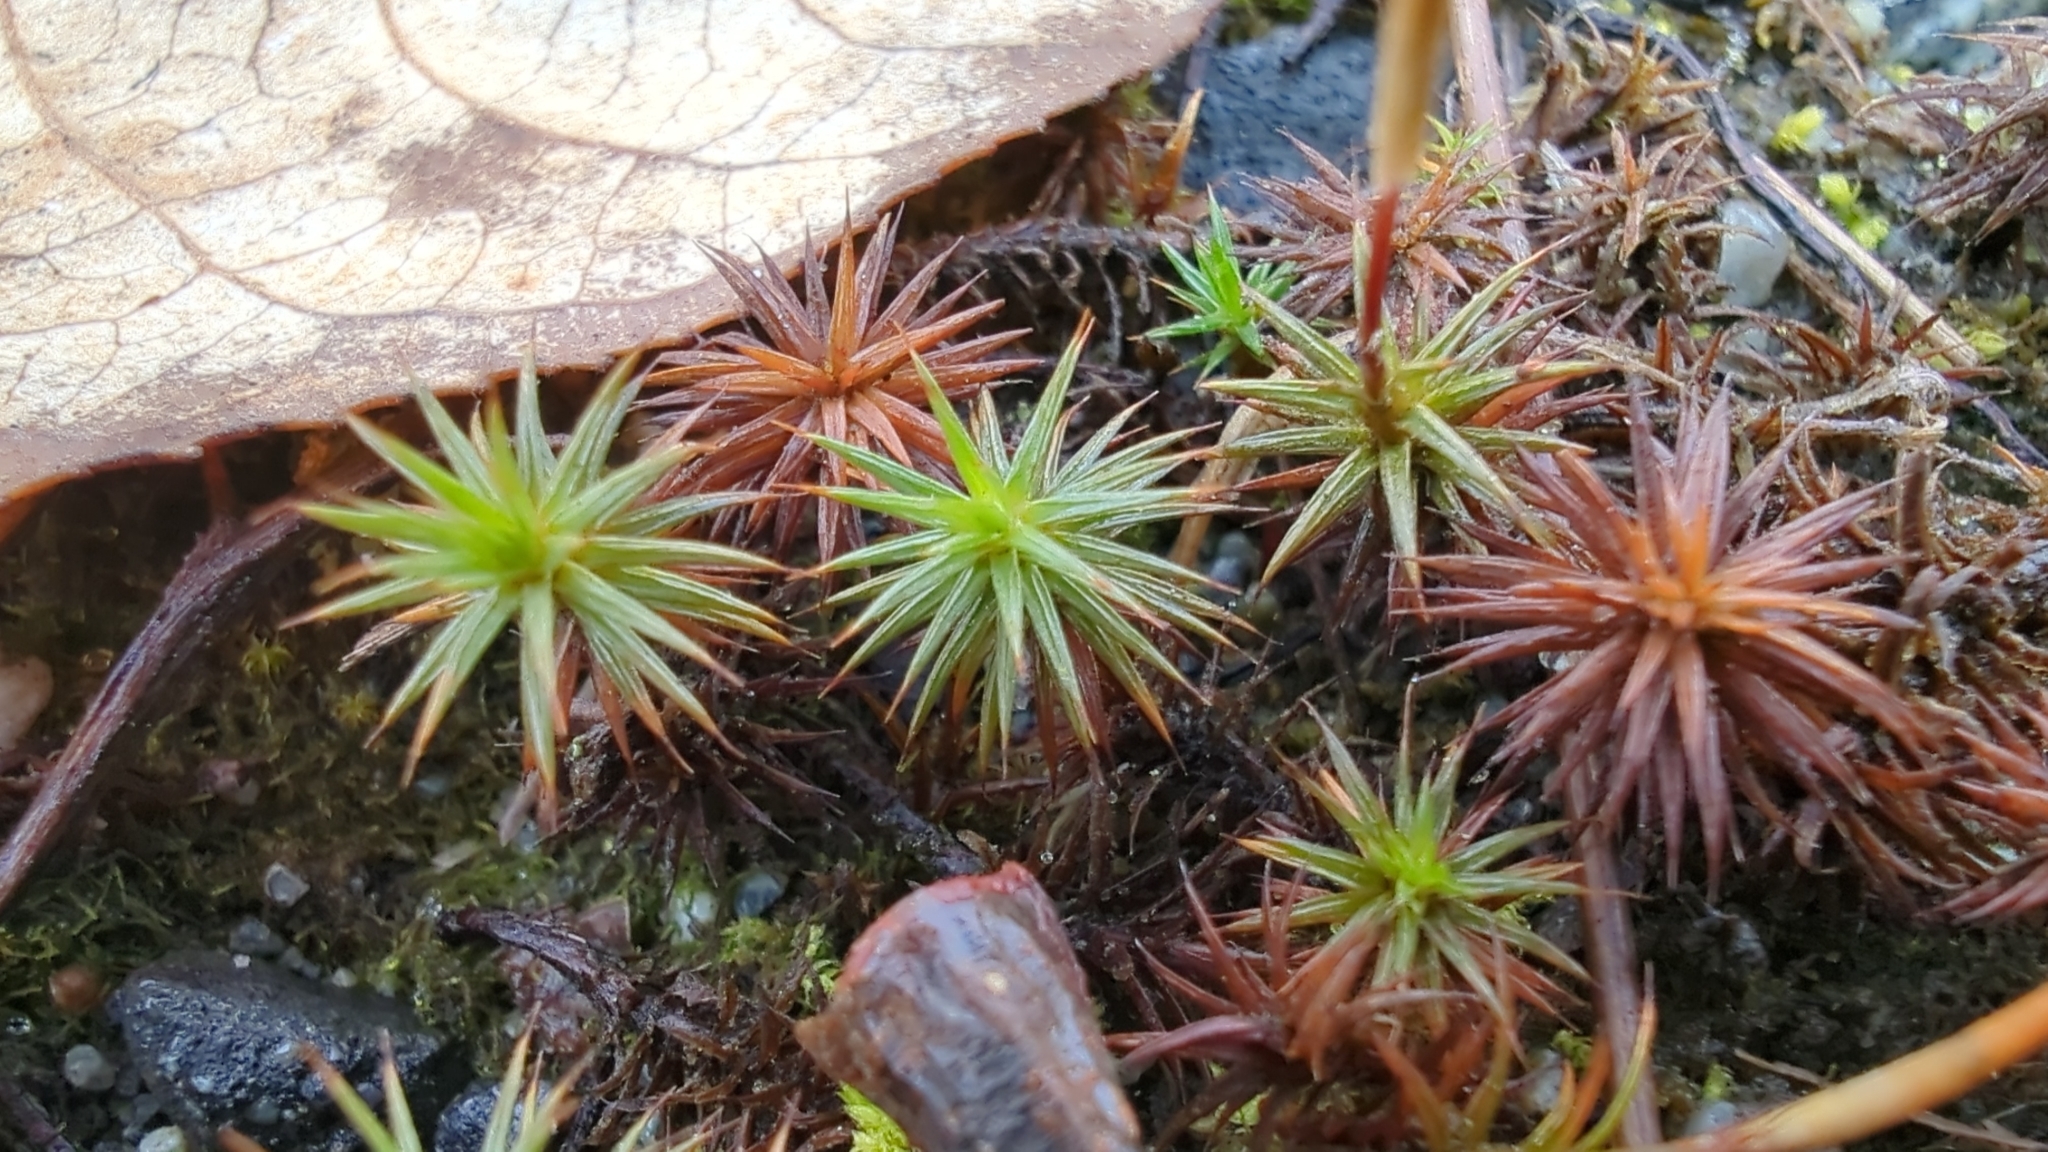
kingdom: Plantae
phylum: Bryophyta
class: Polytrichopsida
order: Polytrichales
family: Polytrichaceae
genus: Polytrichum
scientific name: Polytrichum juniperinum
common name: Juniper haircap moss
